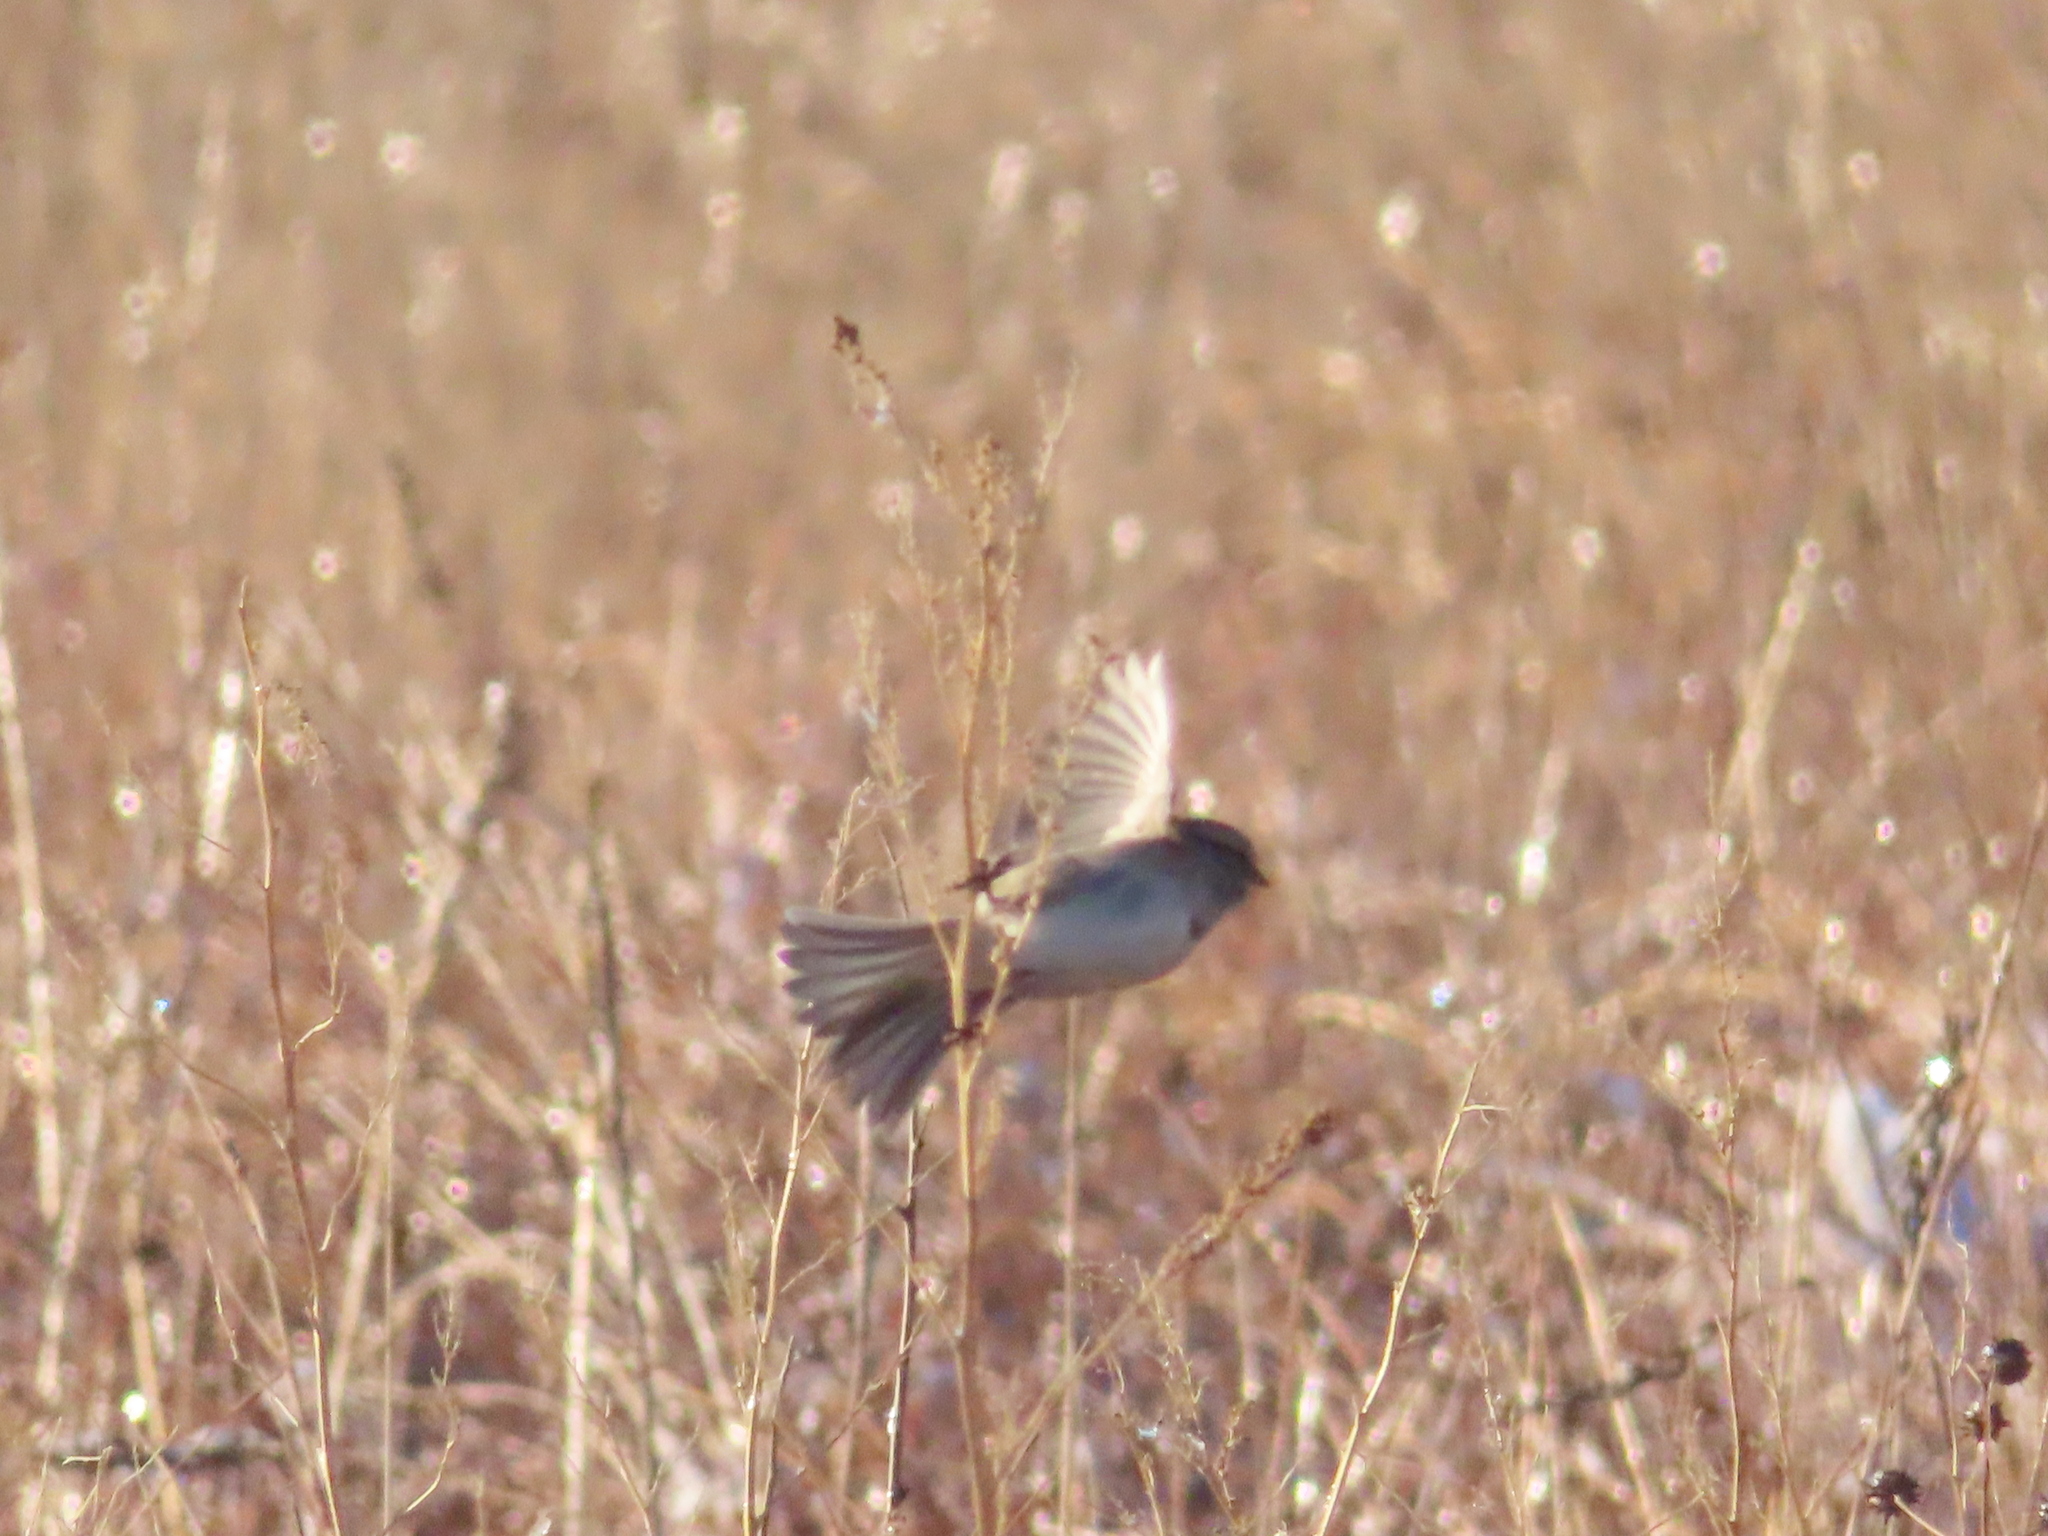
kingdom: Animalia
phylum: Chordata
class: Aves
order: Passeriformes
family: Passerellidae
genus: Spizelloides
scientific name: Spizelloides arborea
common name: American tree sparrow
